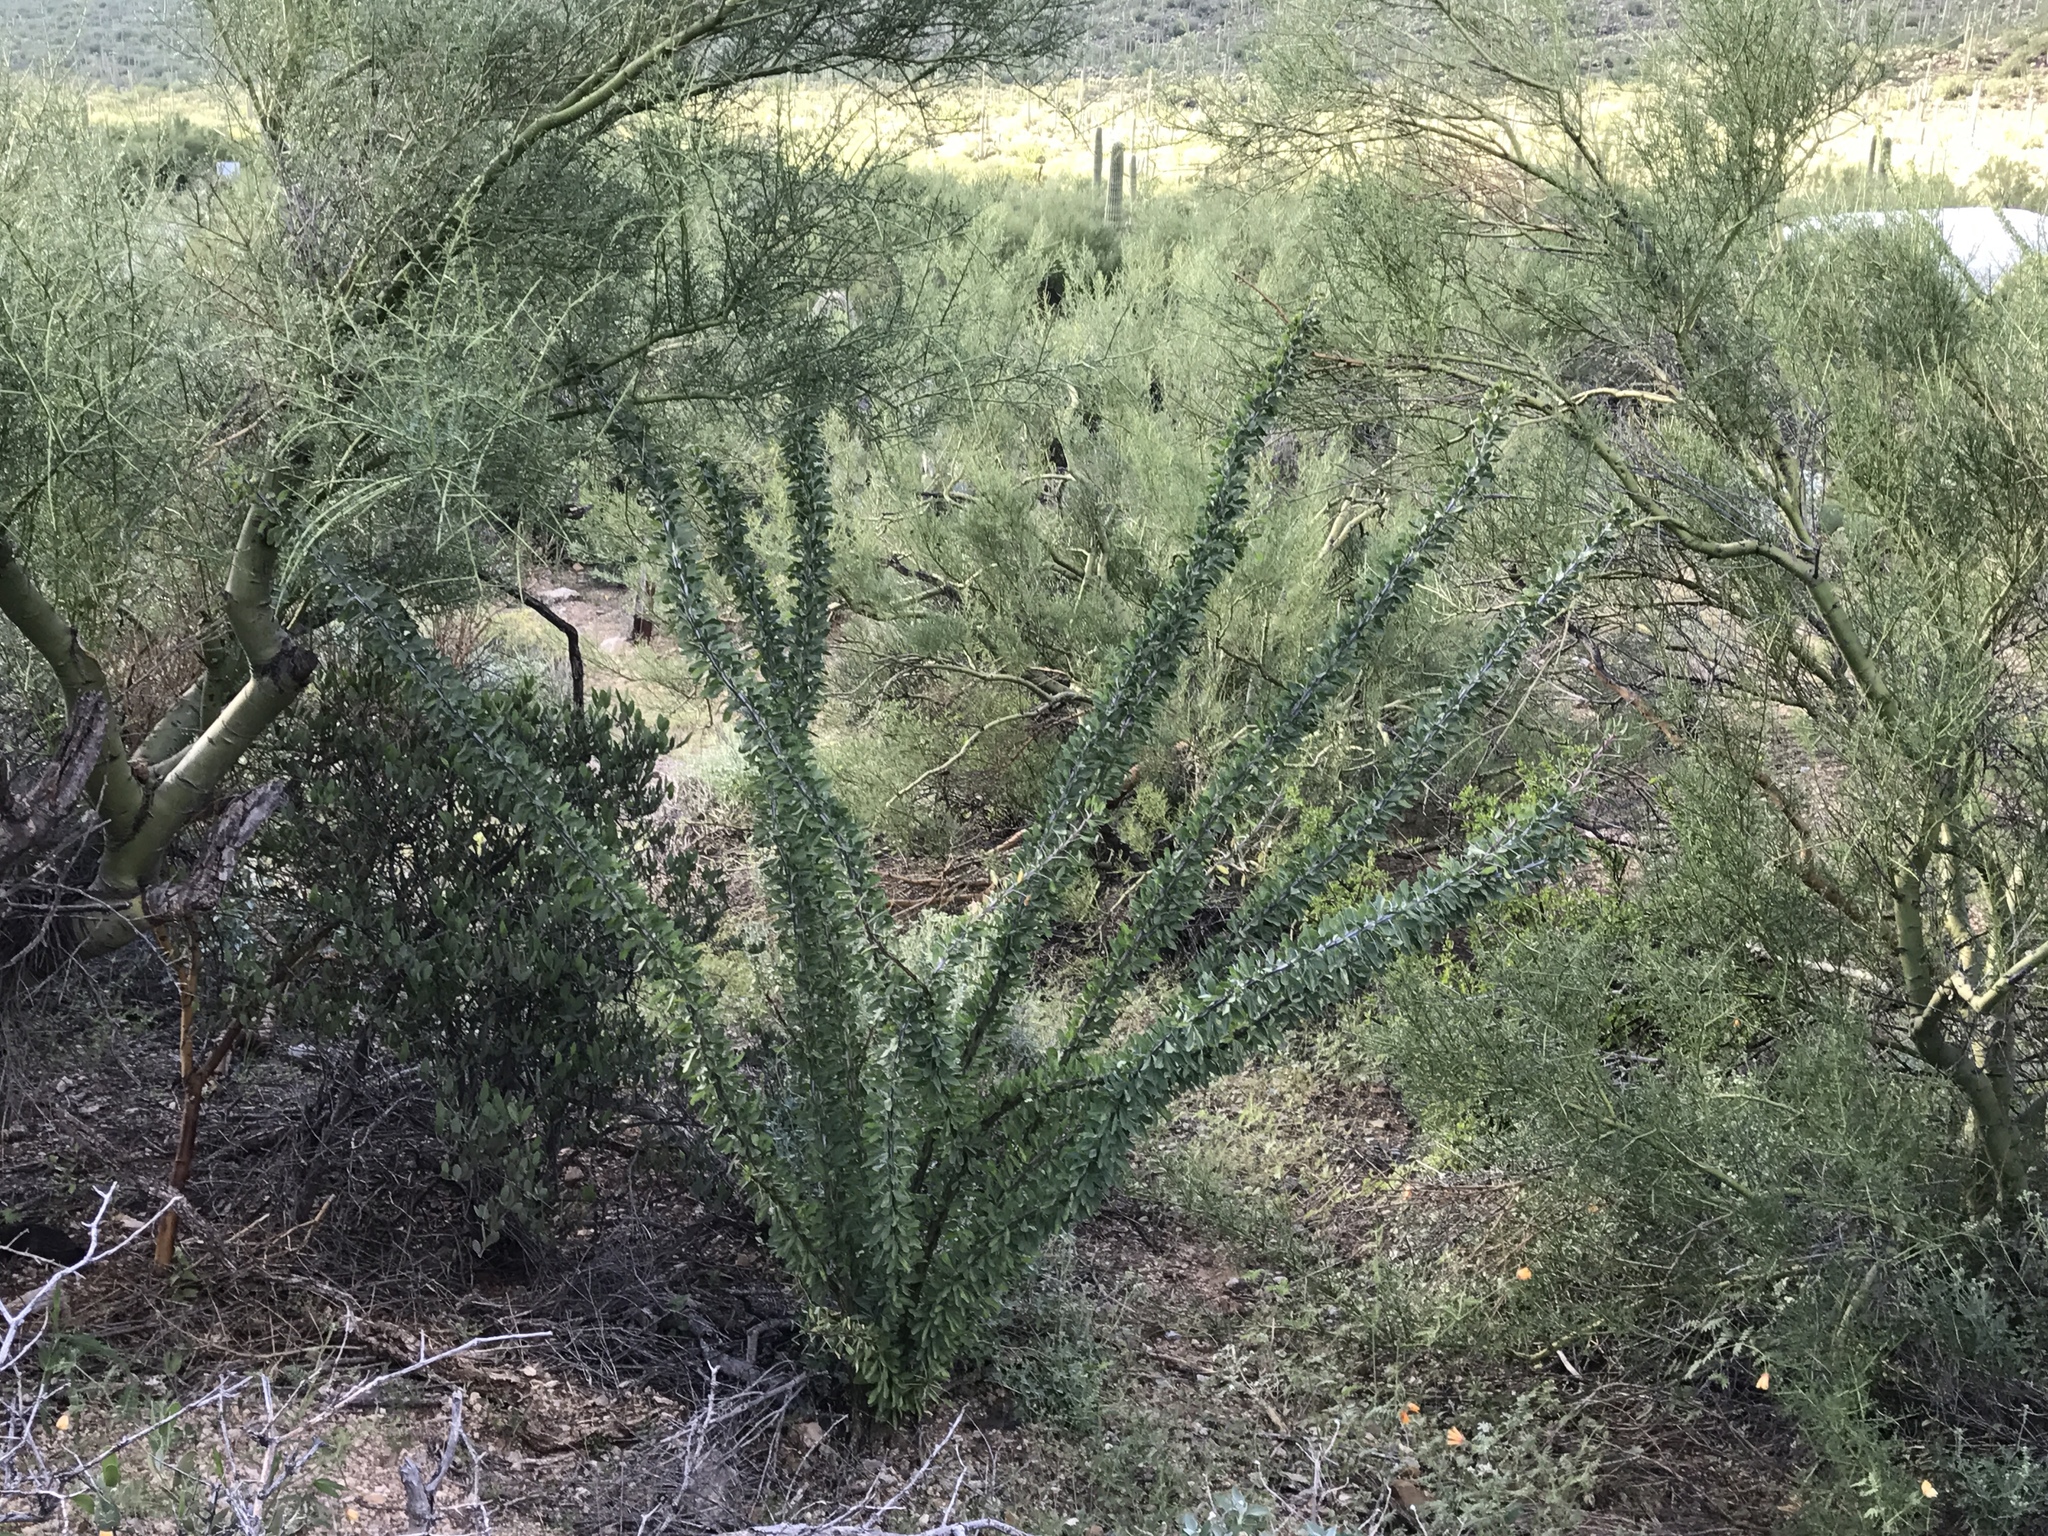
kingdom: Plantae
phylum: Tracheophyta
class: Magnoliopsida
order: Ericales
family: Fouquieriaceae
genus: Fouquieria
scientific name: Fouquieria splendens
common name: Vine-cactus
